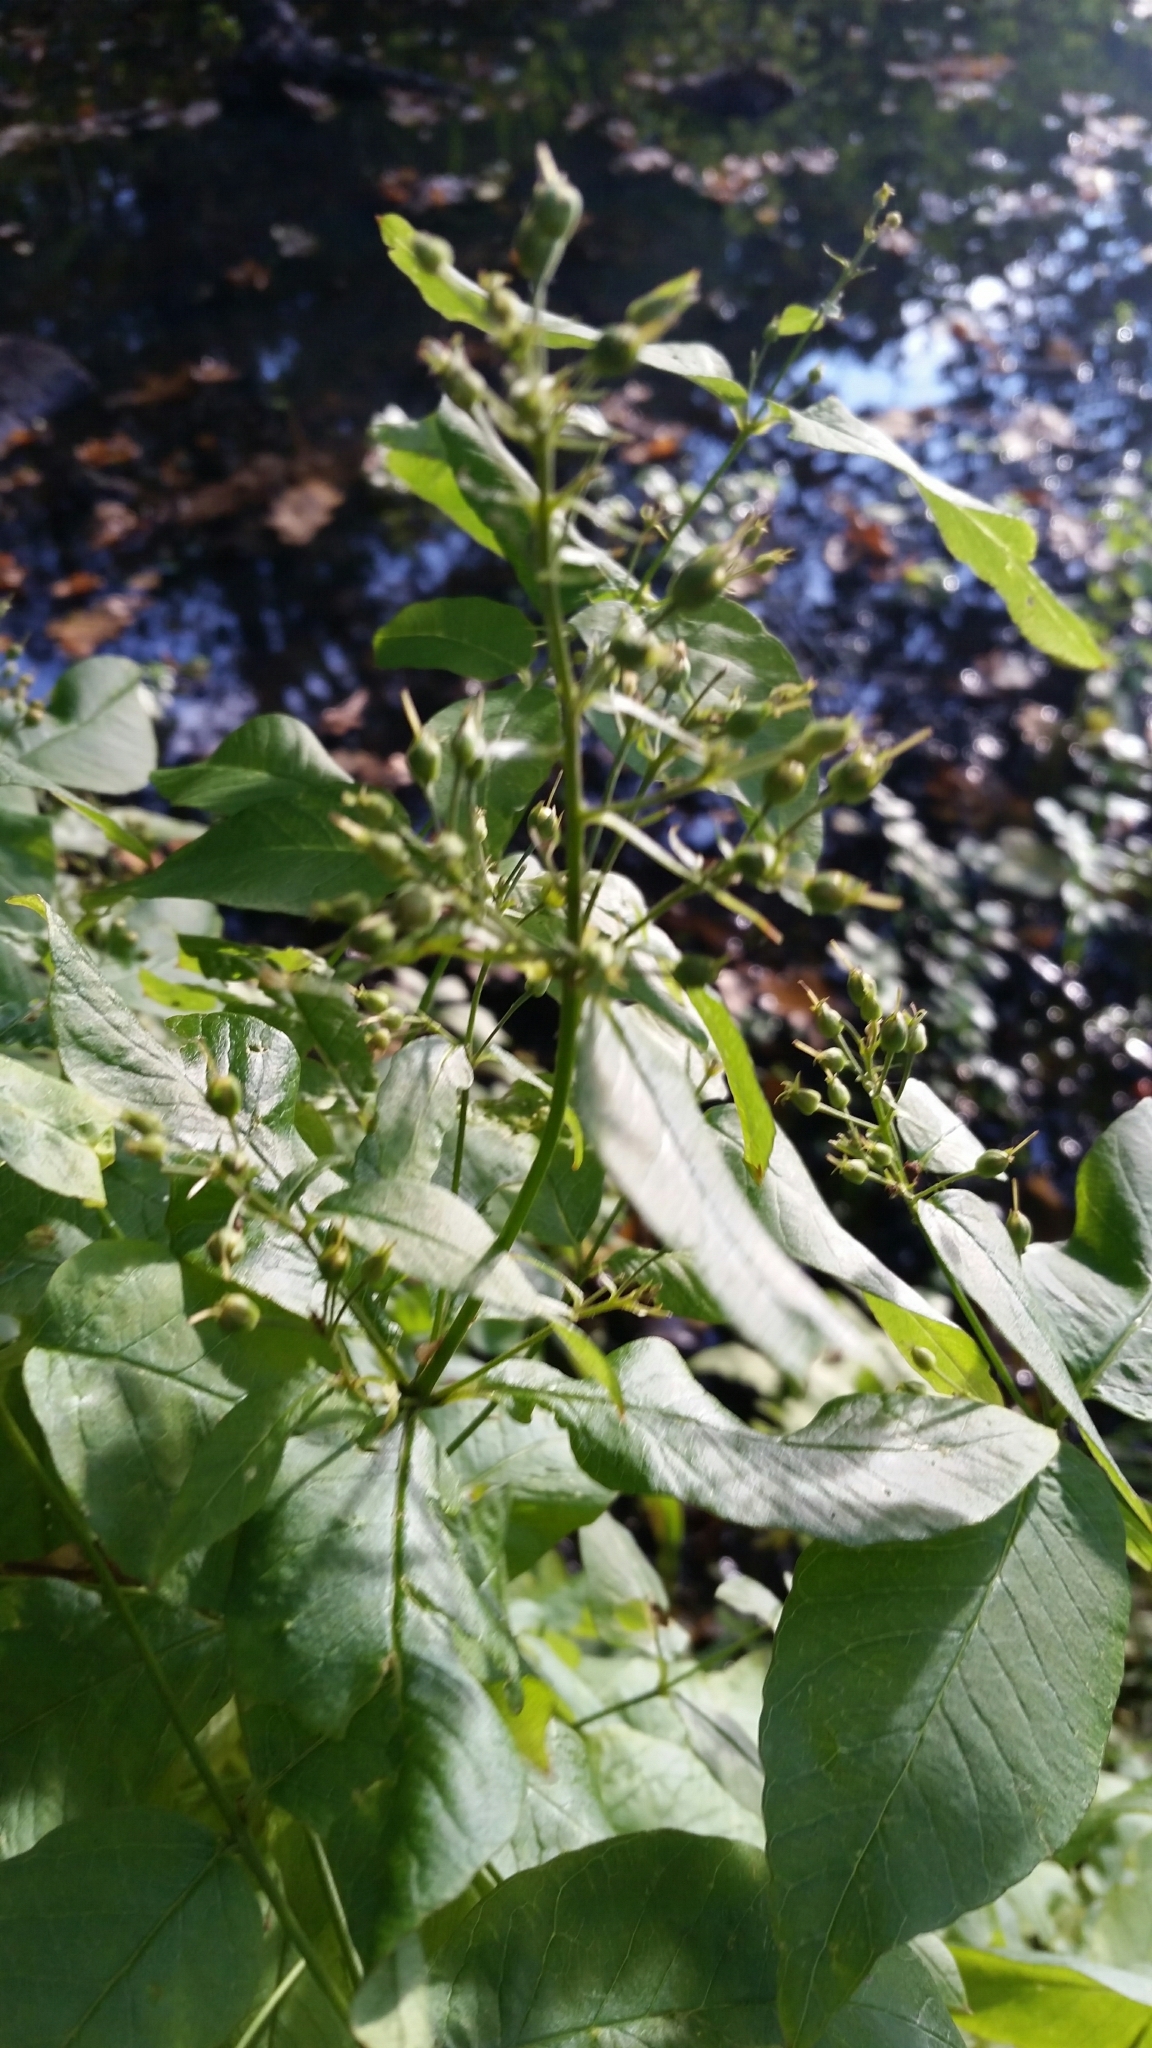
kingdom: Plantae
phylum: Tracheophyta
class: Magnoliopsida
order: Ericales
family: Primulaceae
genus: Lysimachia
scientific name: Lysimachia vulgaris
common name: Yellow loosestrife
